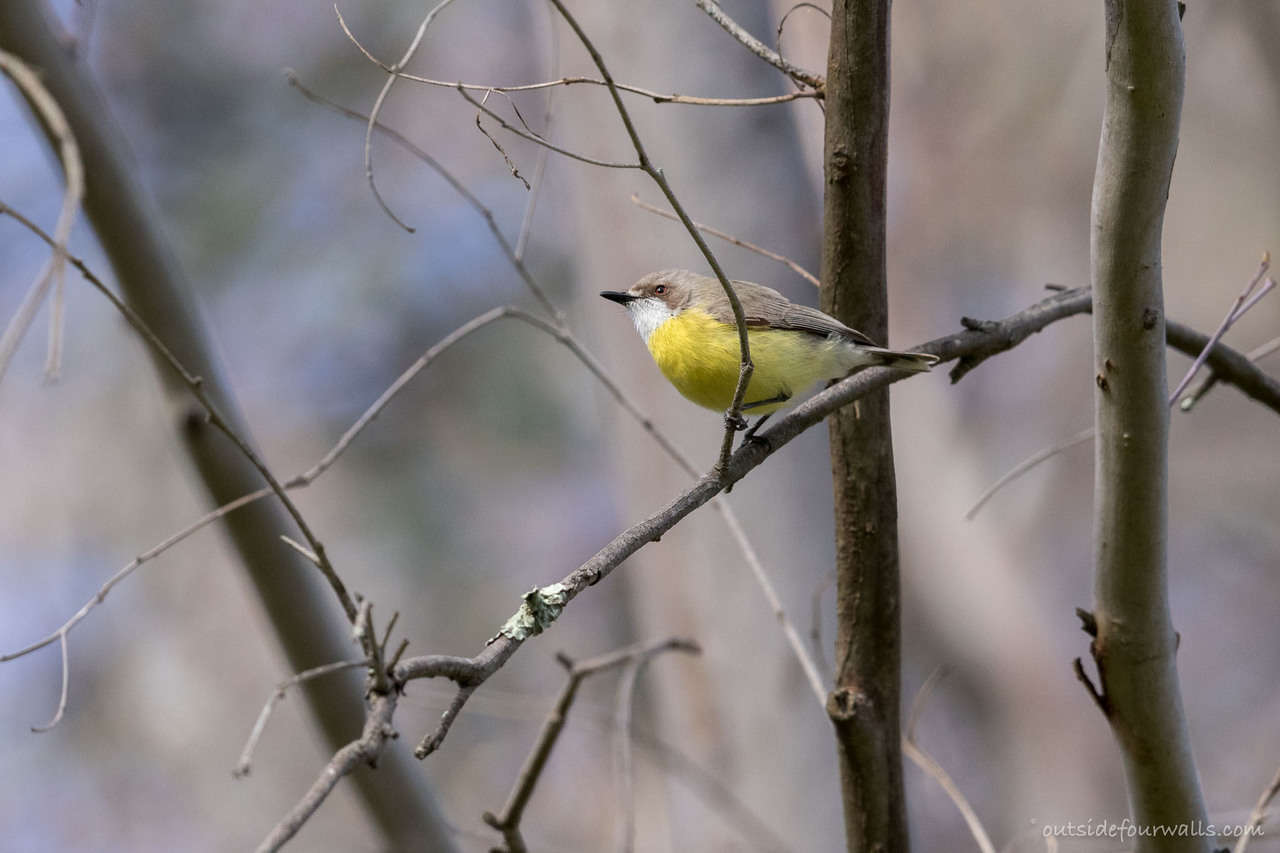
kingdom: Animalia
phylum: Chordata
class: Aves
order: Passeriformes
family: Acanthizidae
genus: Gerygone
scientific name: Gerygone olivacea
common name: White-throated gerygone
